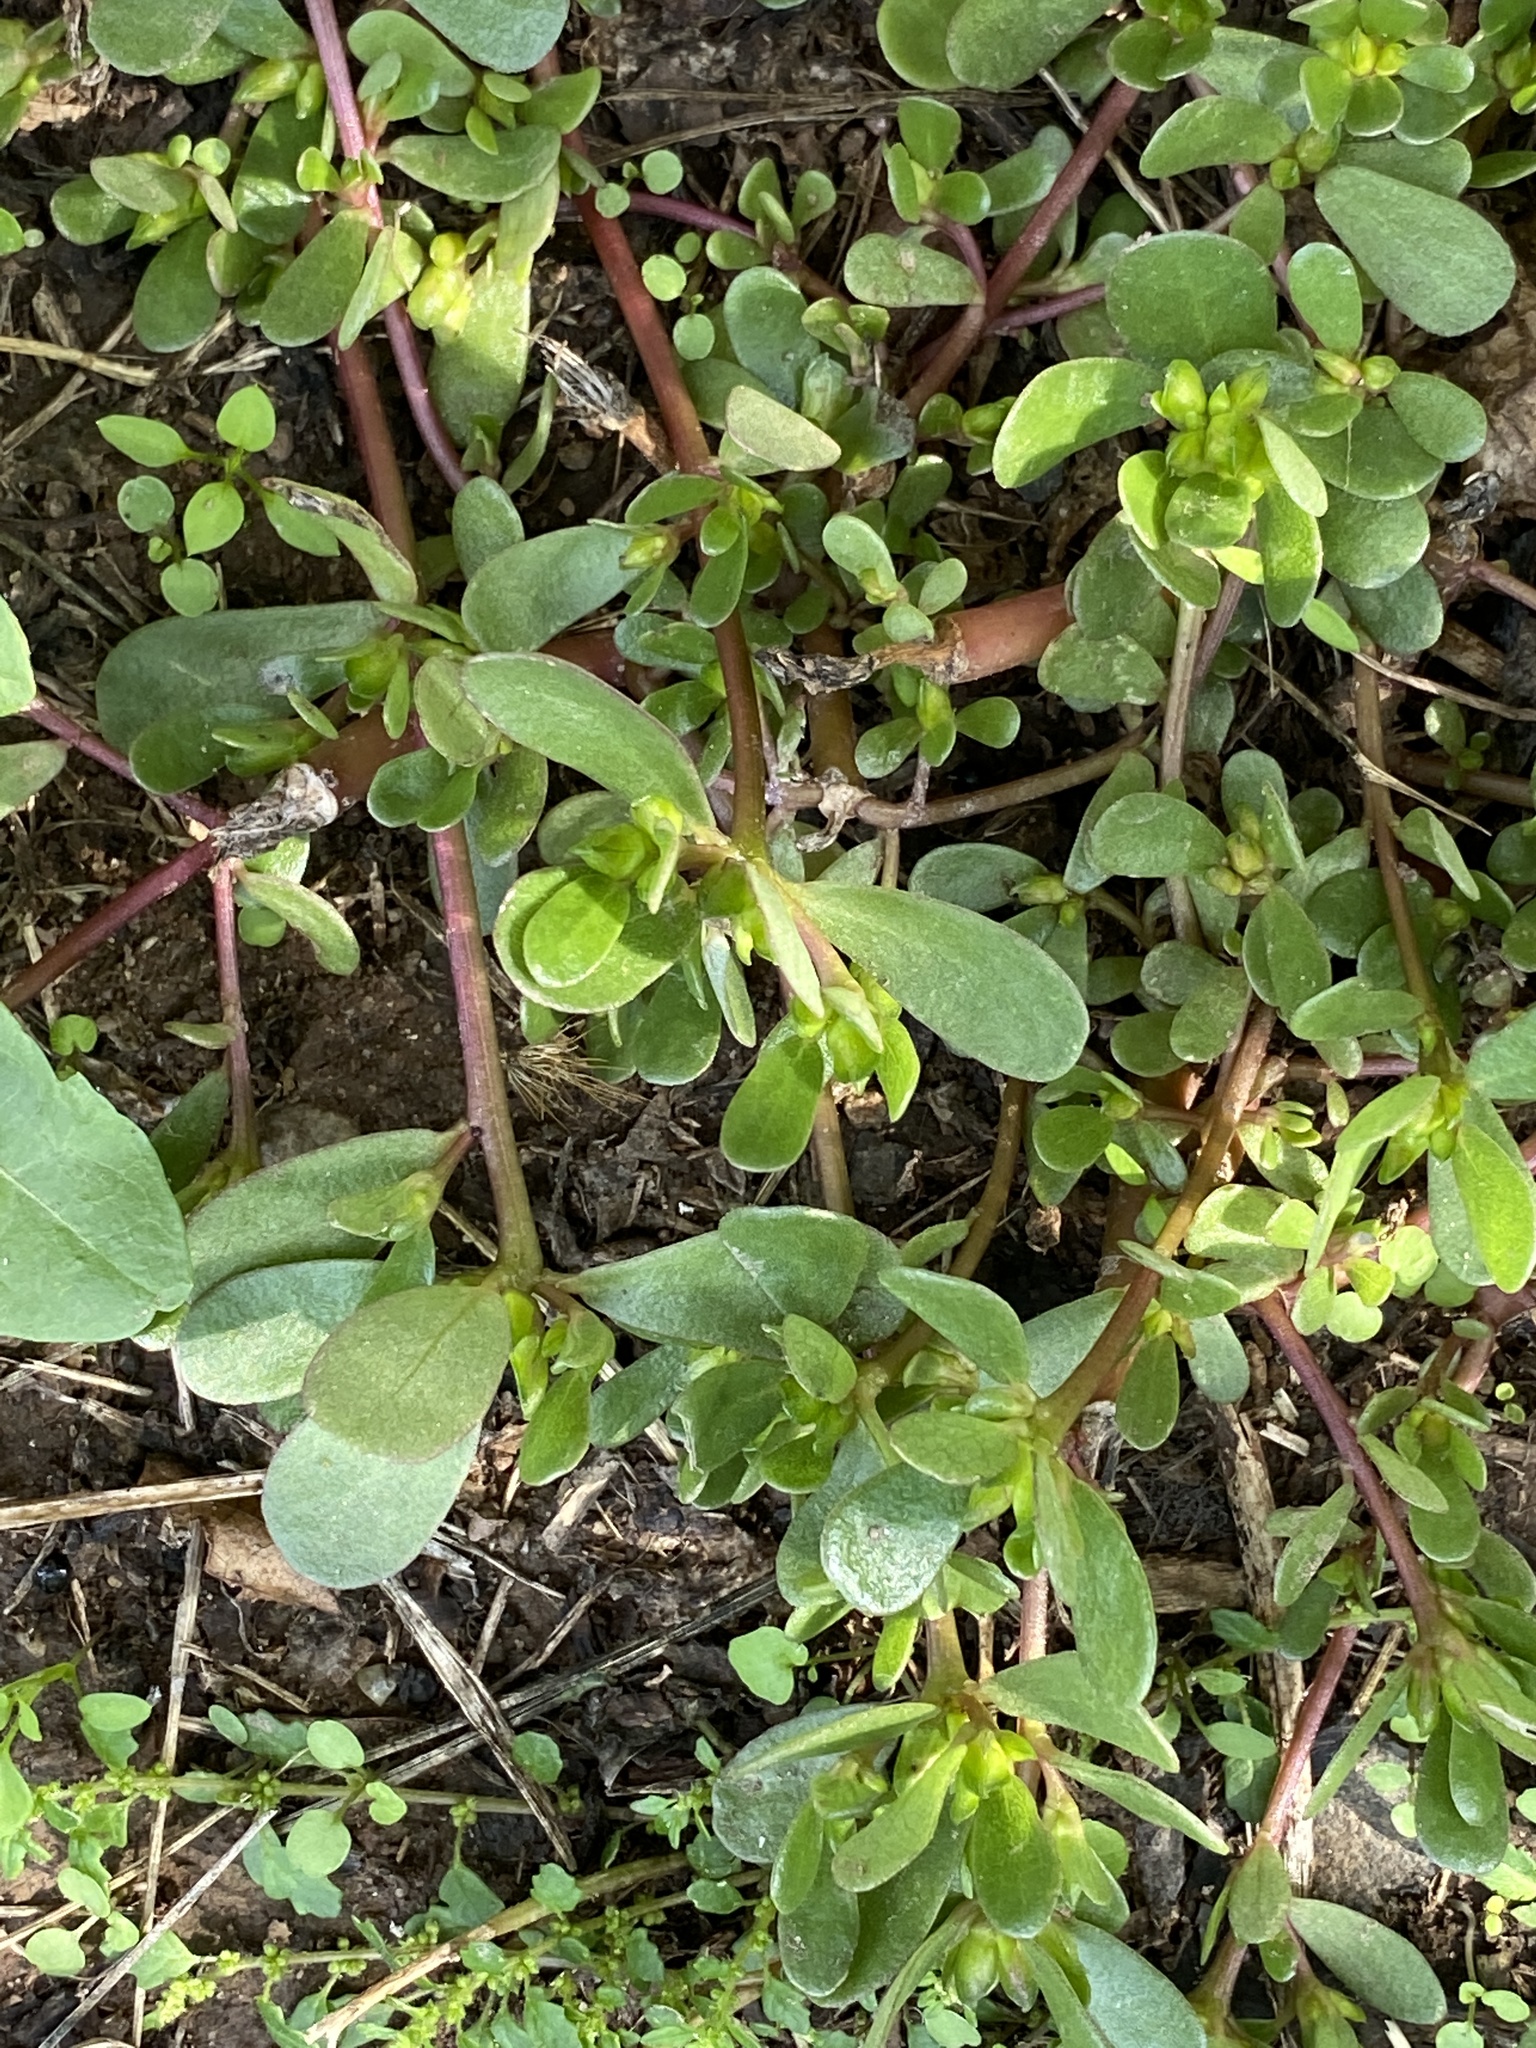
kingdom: Plantae
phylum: Tracheophyta
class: Magnoliopsida
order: Caryophyllales
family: Portulacaceae
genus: Portulaca
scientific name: Portulaca oleracea
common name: Common purslane
